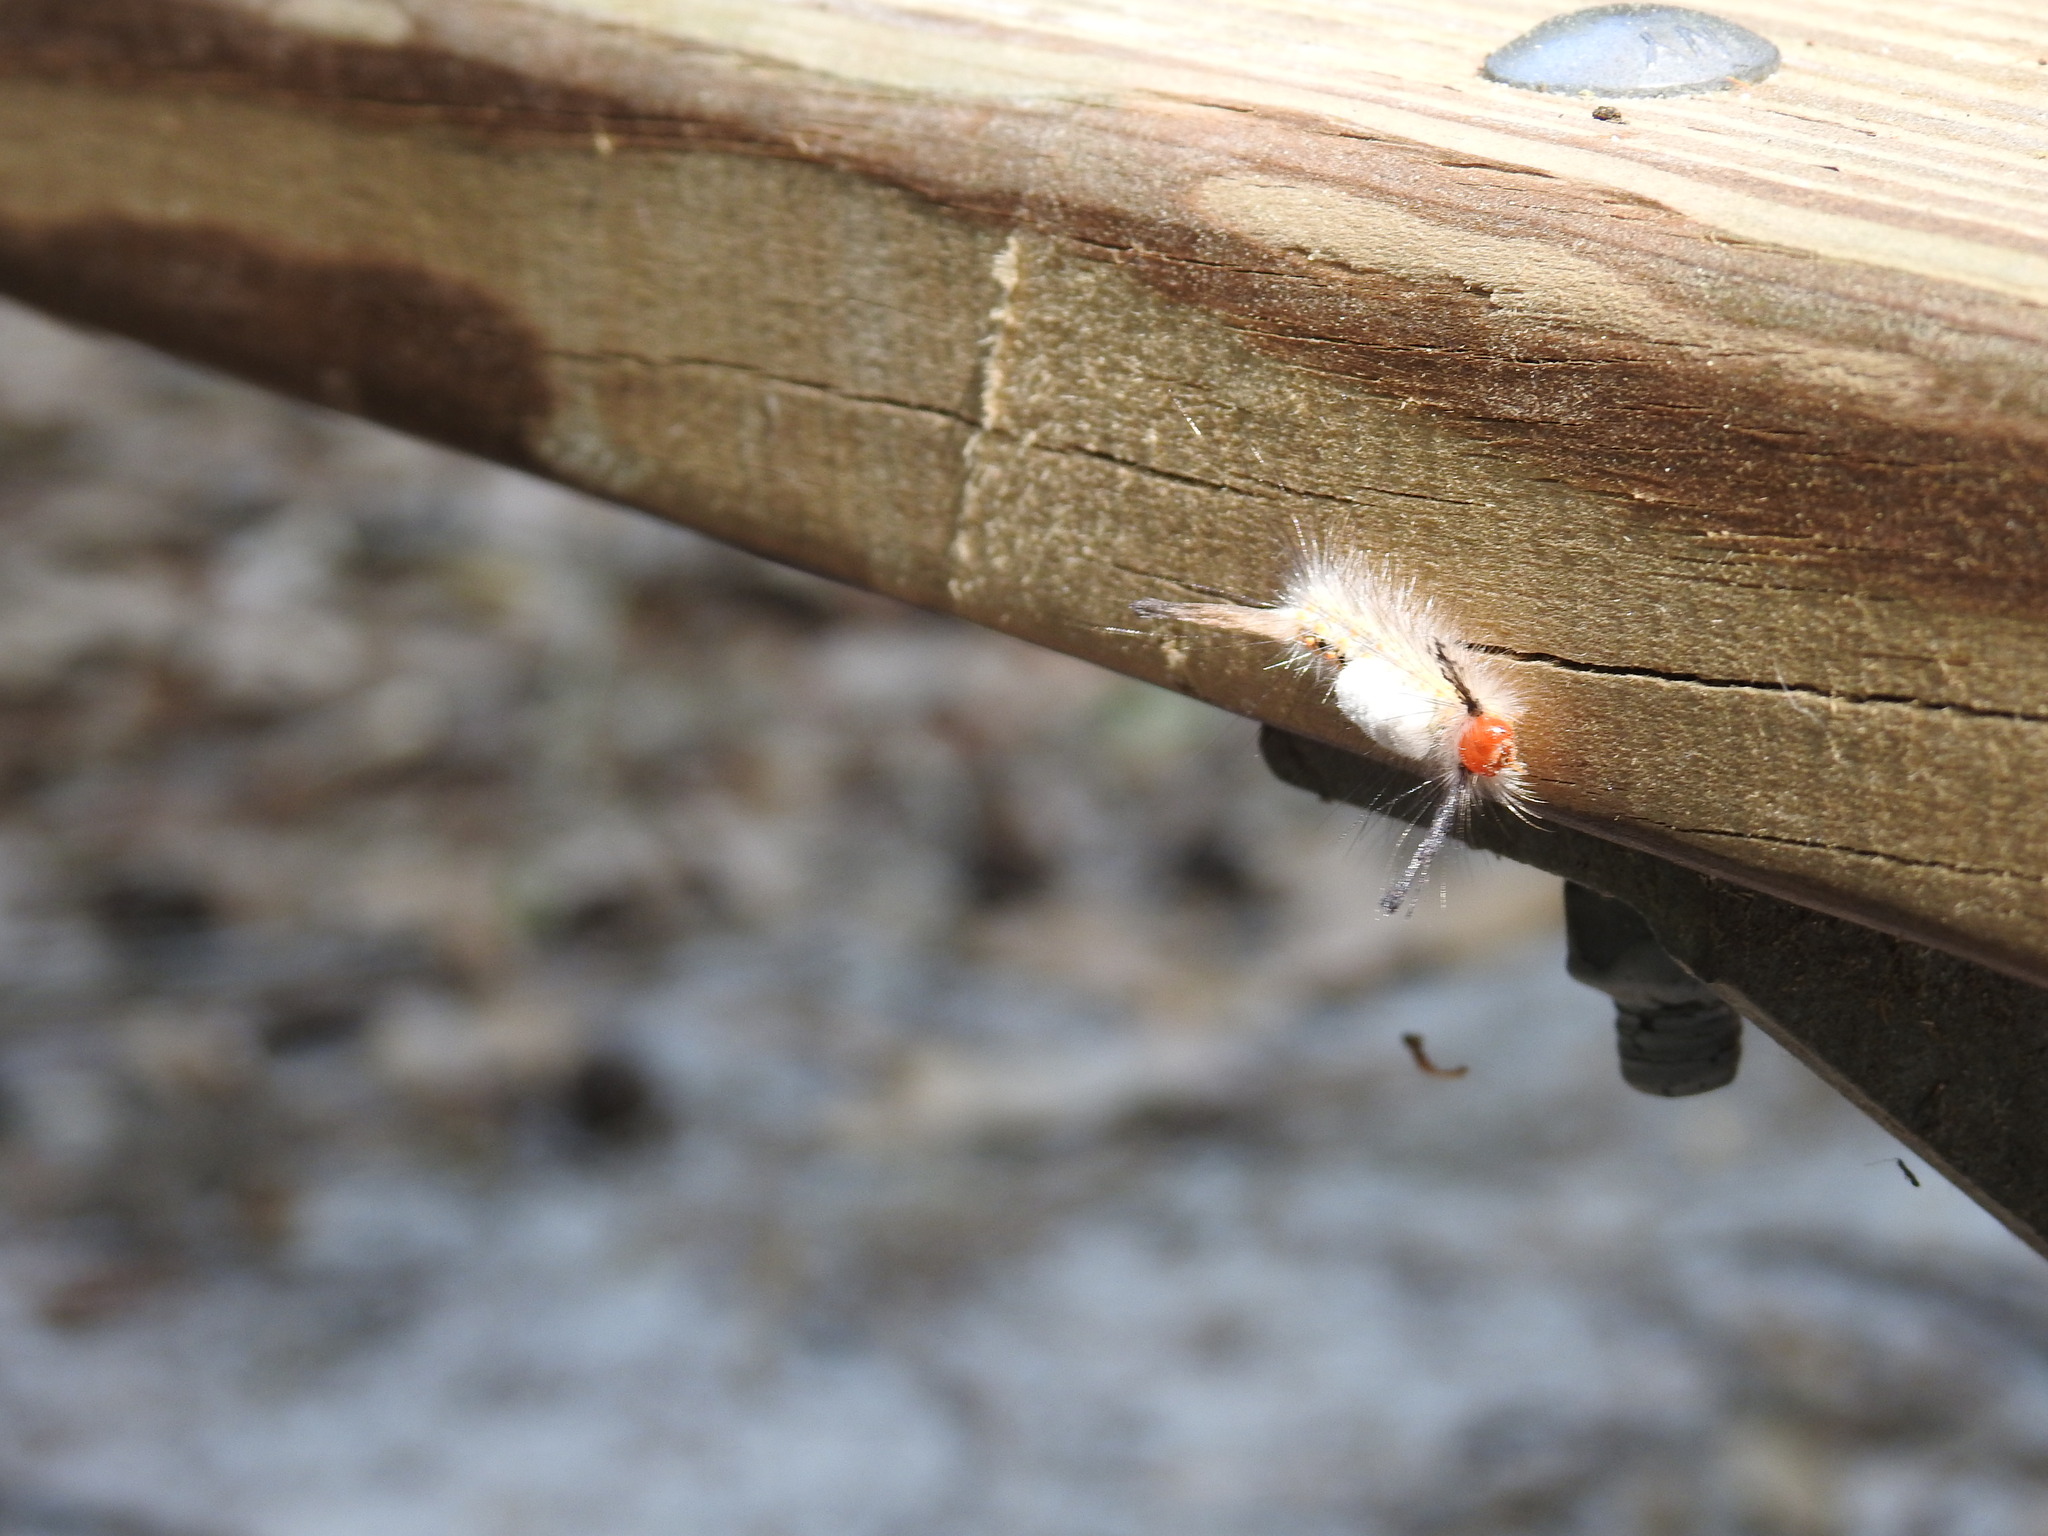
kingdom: Animalia
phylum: Arthropoda
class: Insecta
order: Lepidoptera
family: Erebidae
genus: Orgyia
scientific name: Orgyia detrita
